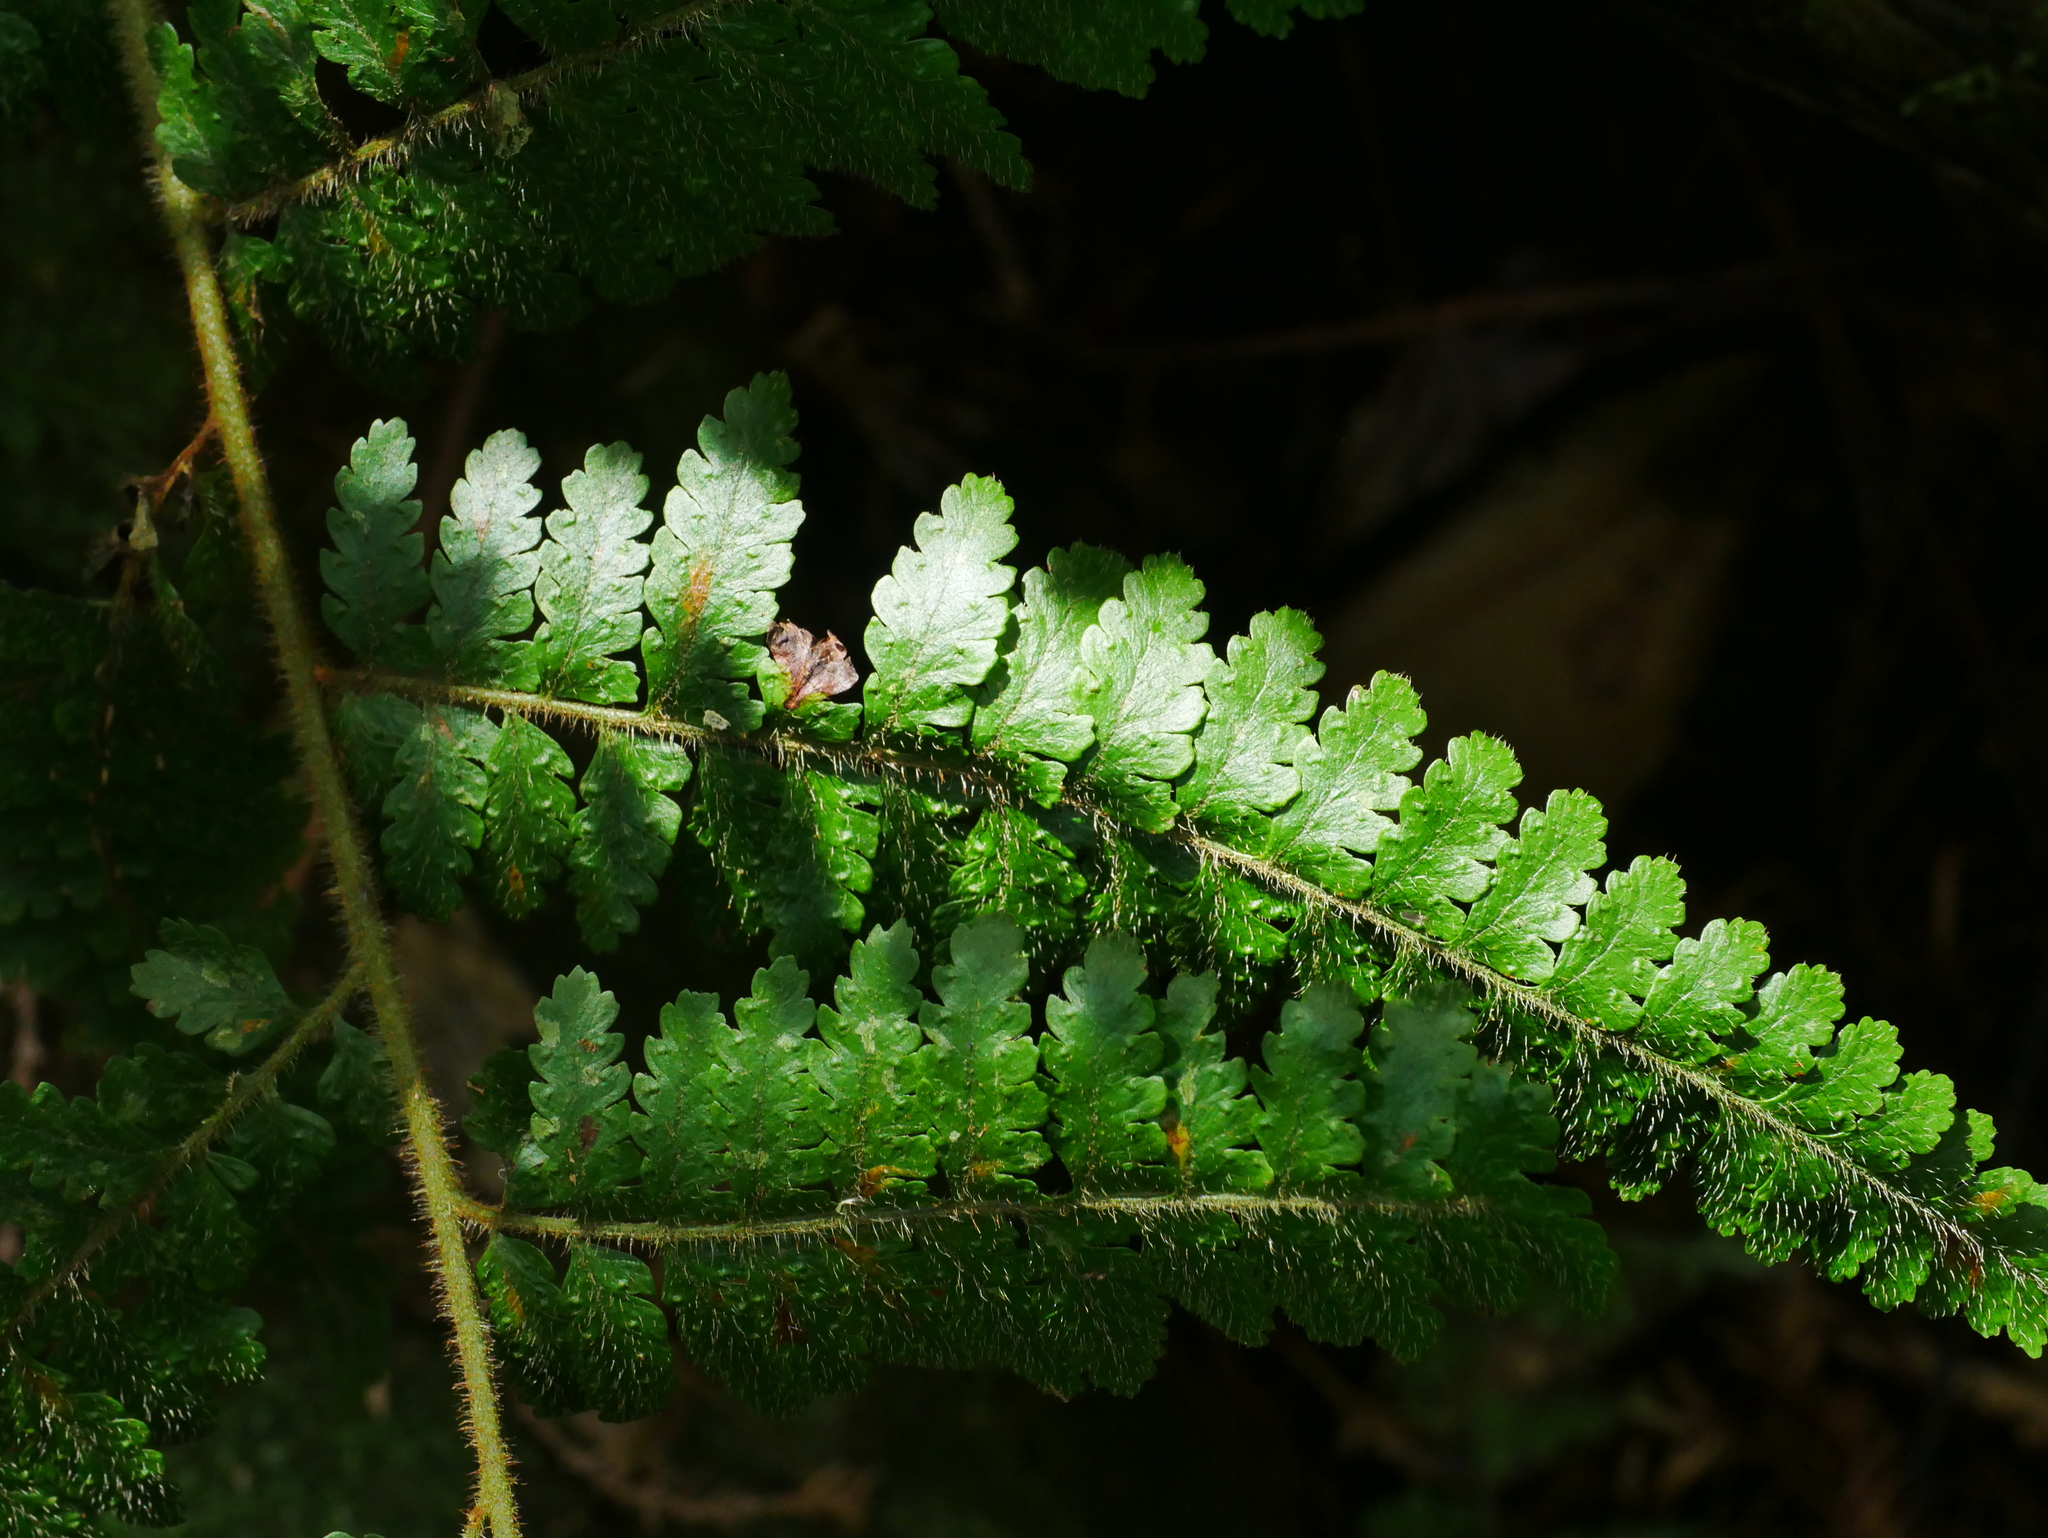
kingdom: Plantae
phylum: Tracheophyta
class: Polypodiopsida
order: Polypodiales
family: Dennstaedtiaceae
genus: Microlepia
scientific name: Microlepia trichocarpa
